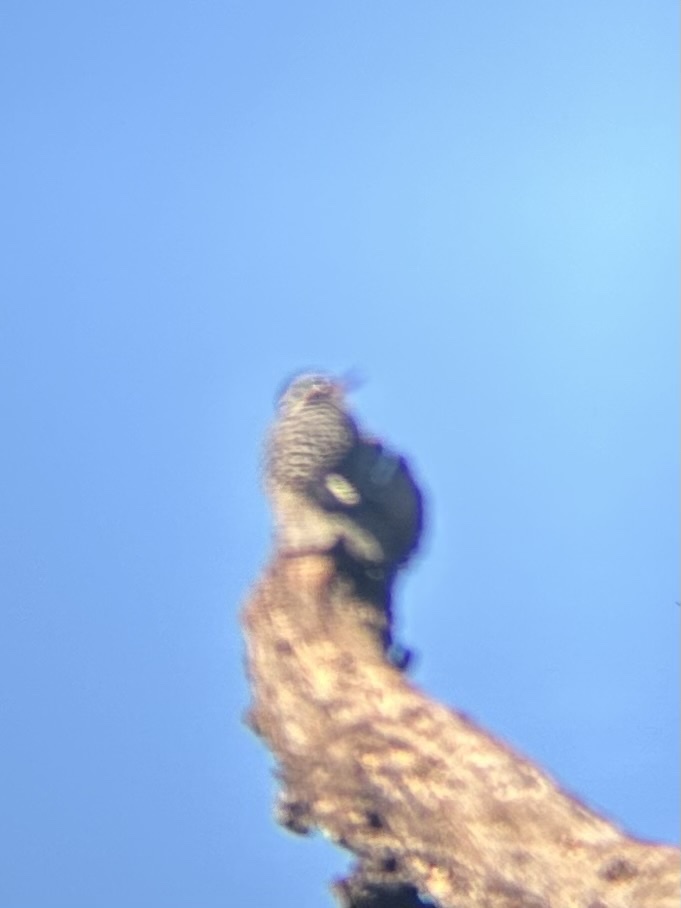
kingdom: Animalia
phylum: Chordata
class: Aves
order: Piciformes
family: Picidae
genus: Dryobates
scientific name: Dryobates nuttallii
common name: Nuttall's woodpecker
